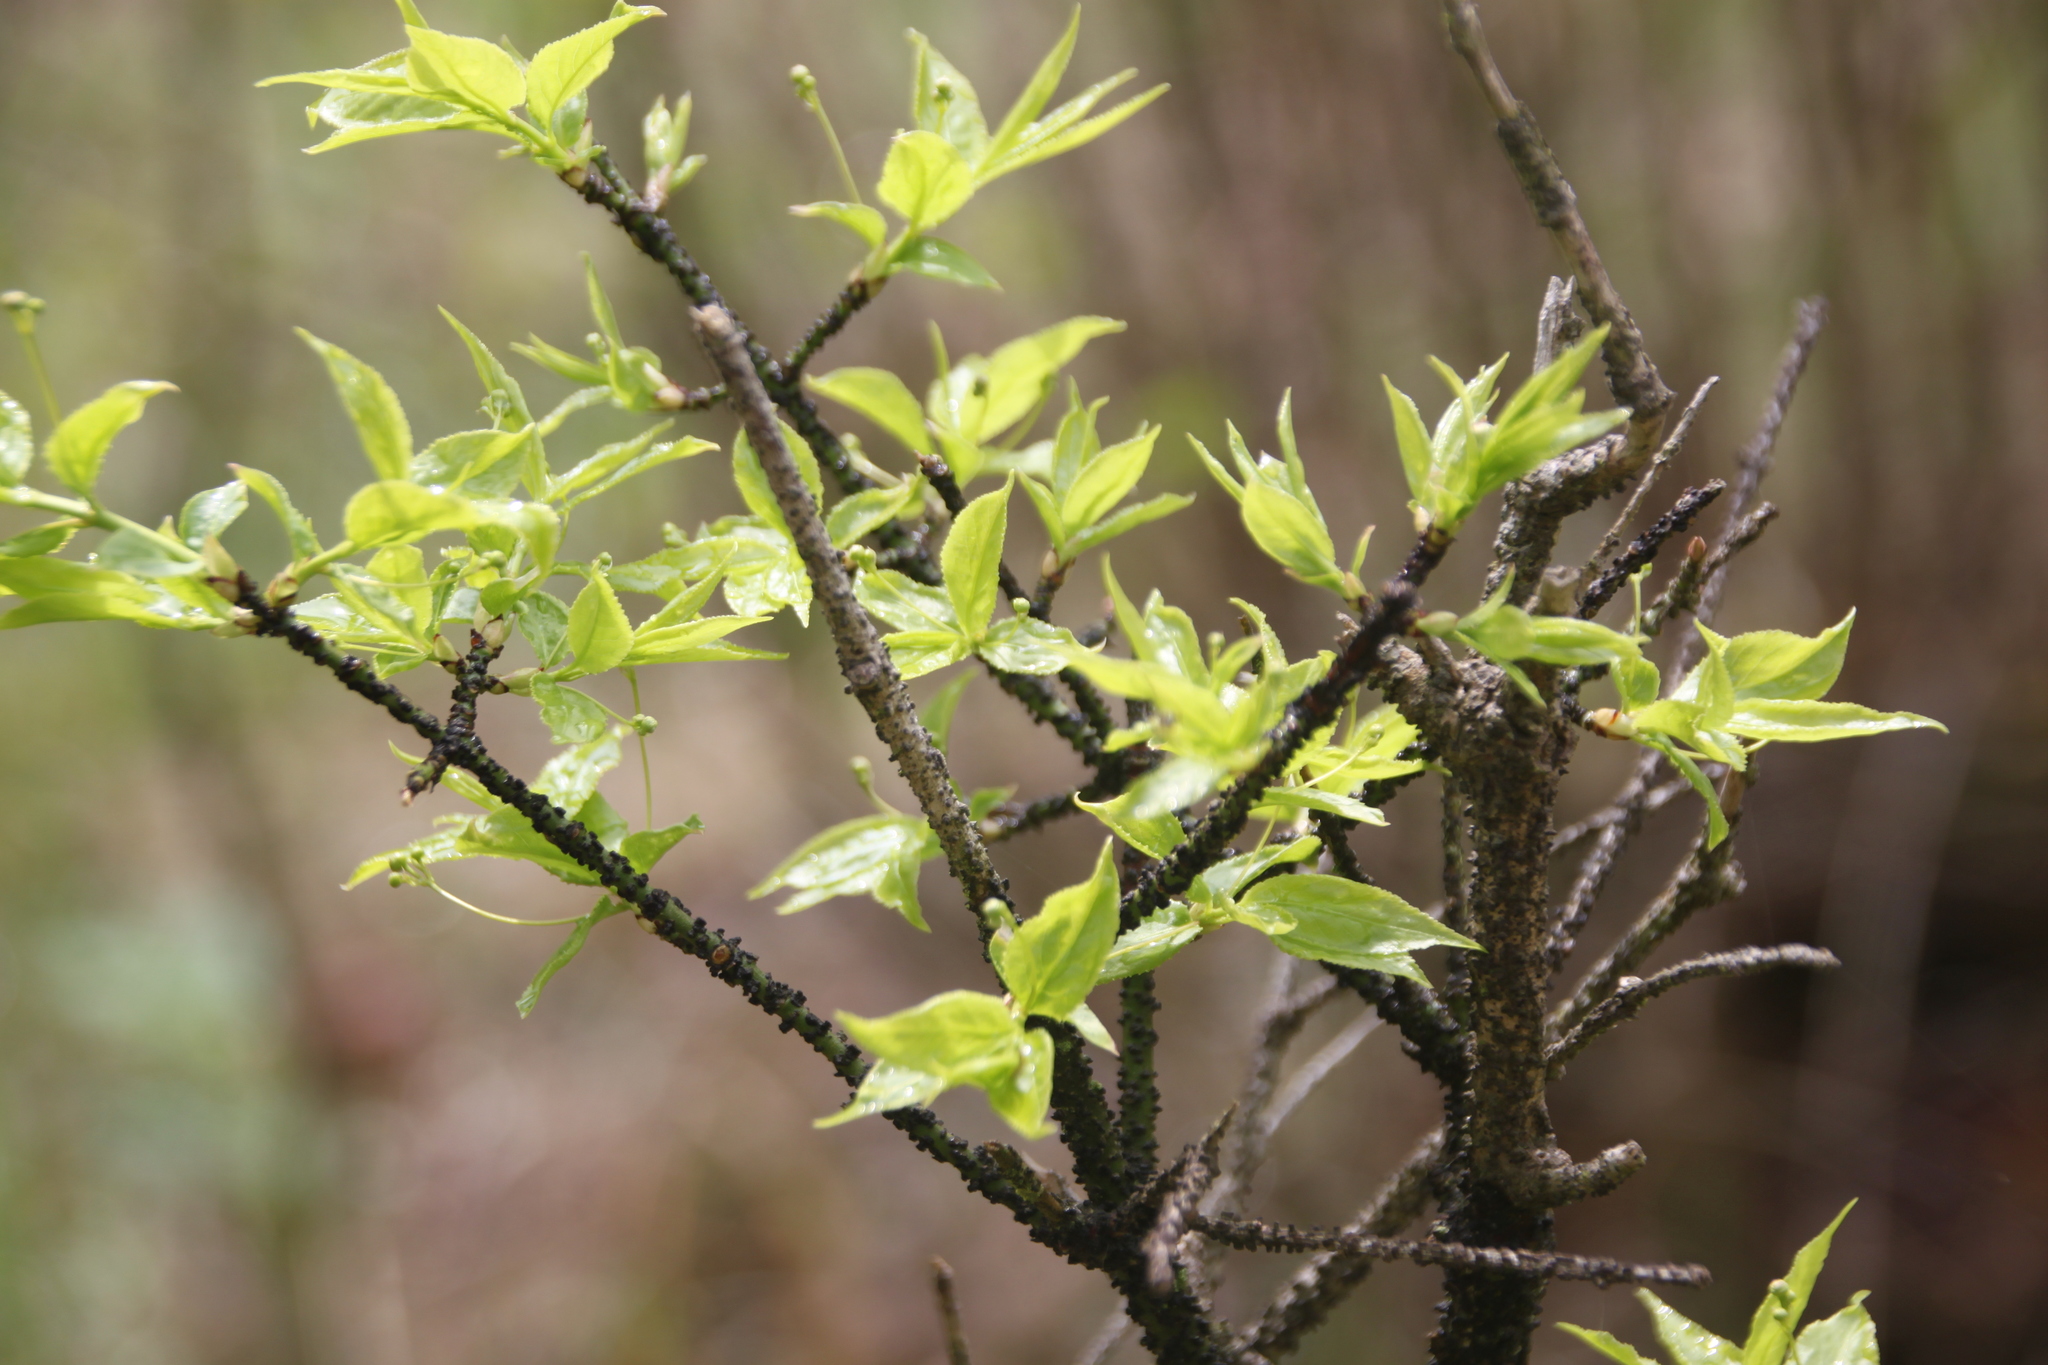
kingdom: Plantae
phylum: Tracheophyta
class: Magnoliopsida
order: Celastrales
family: Celastraceae
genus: Euonymus
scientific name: Euonymus verrucosus
